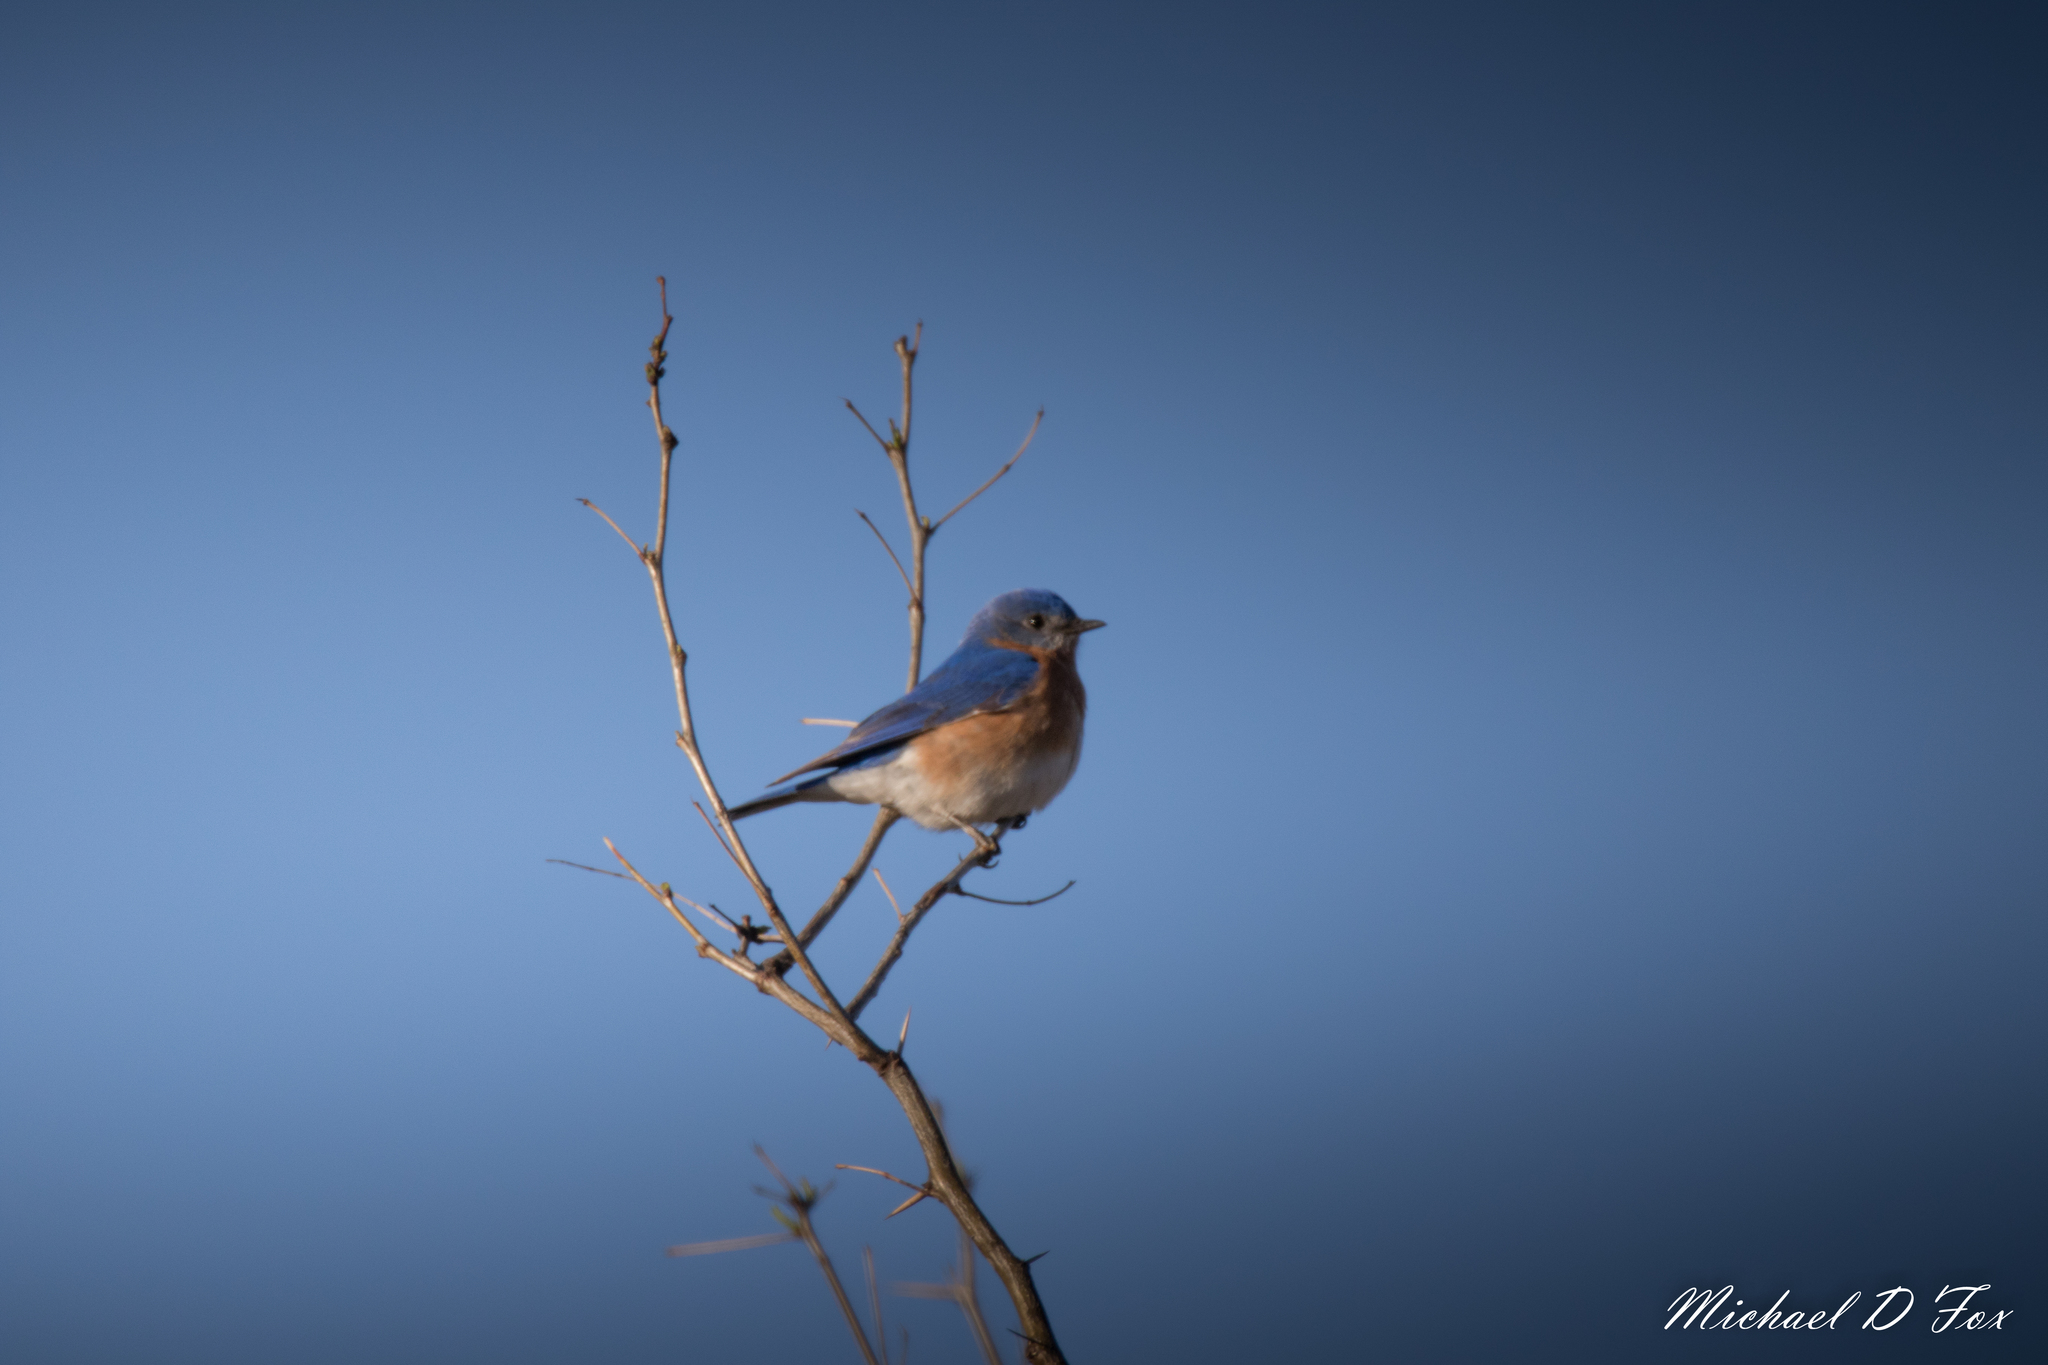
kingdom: Animalia
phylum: Chordata
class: Aves
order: Passeriformes
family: Turdidae
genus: Sialia
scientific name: Sialia sialis
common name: Eastern bluebird
